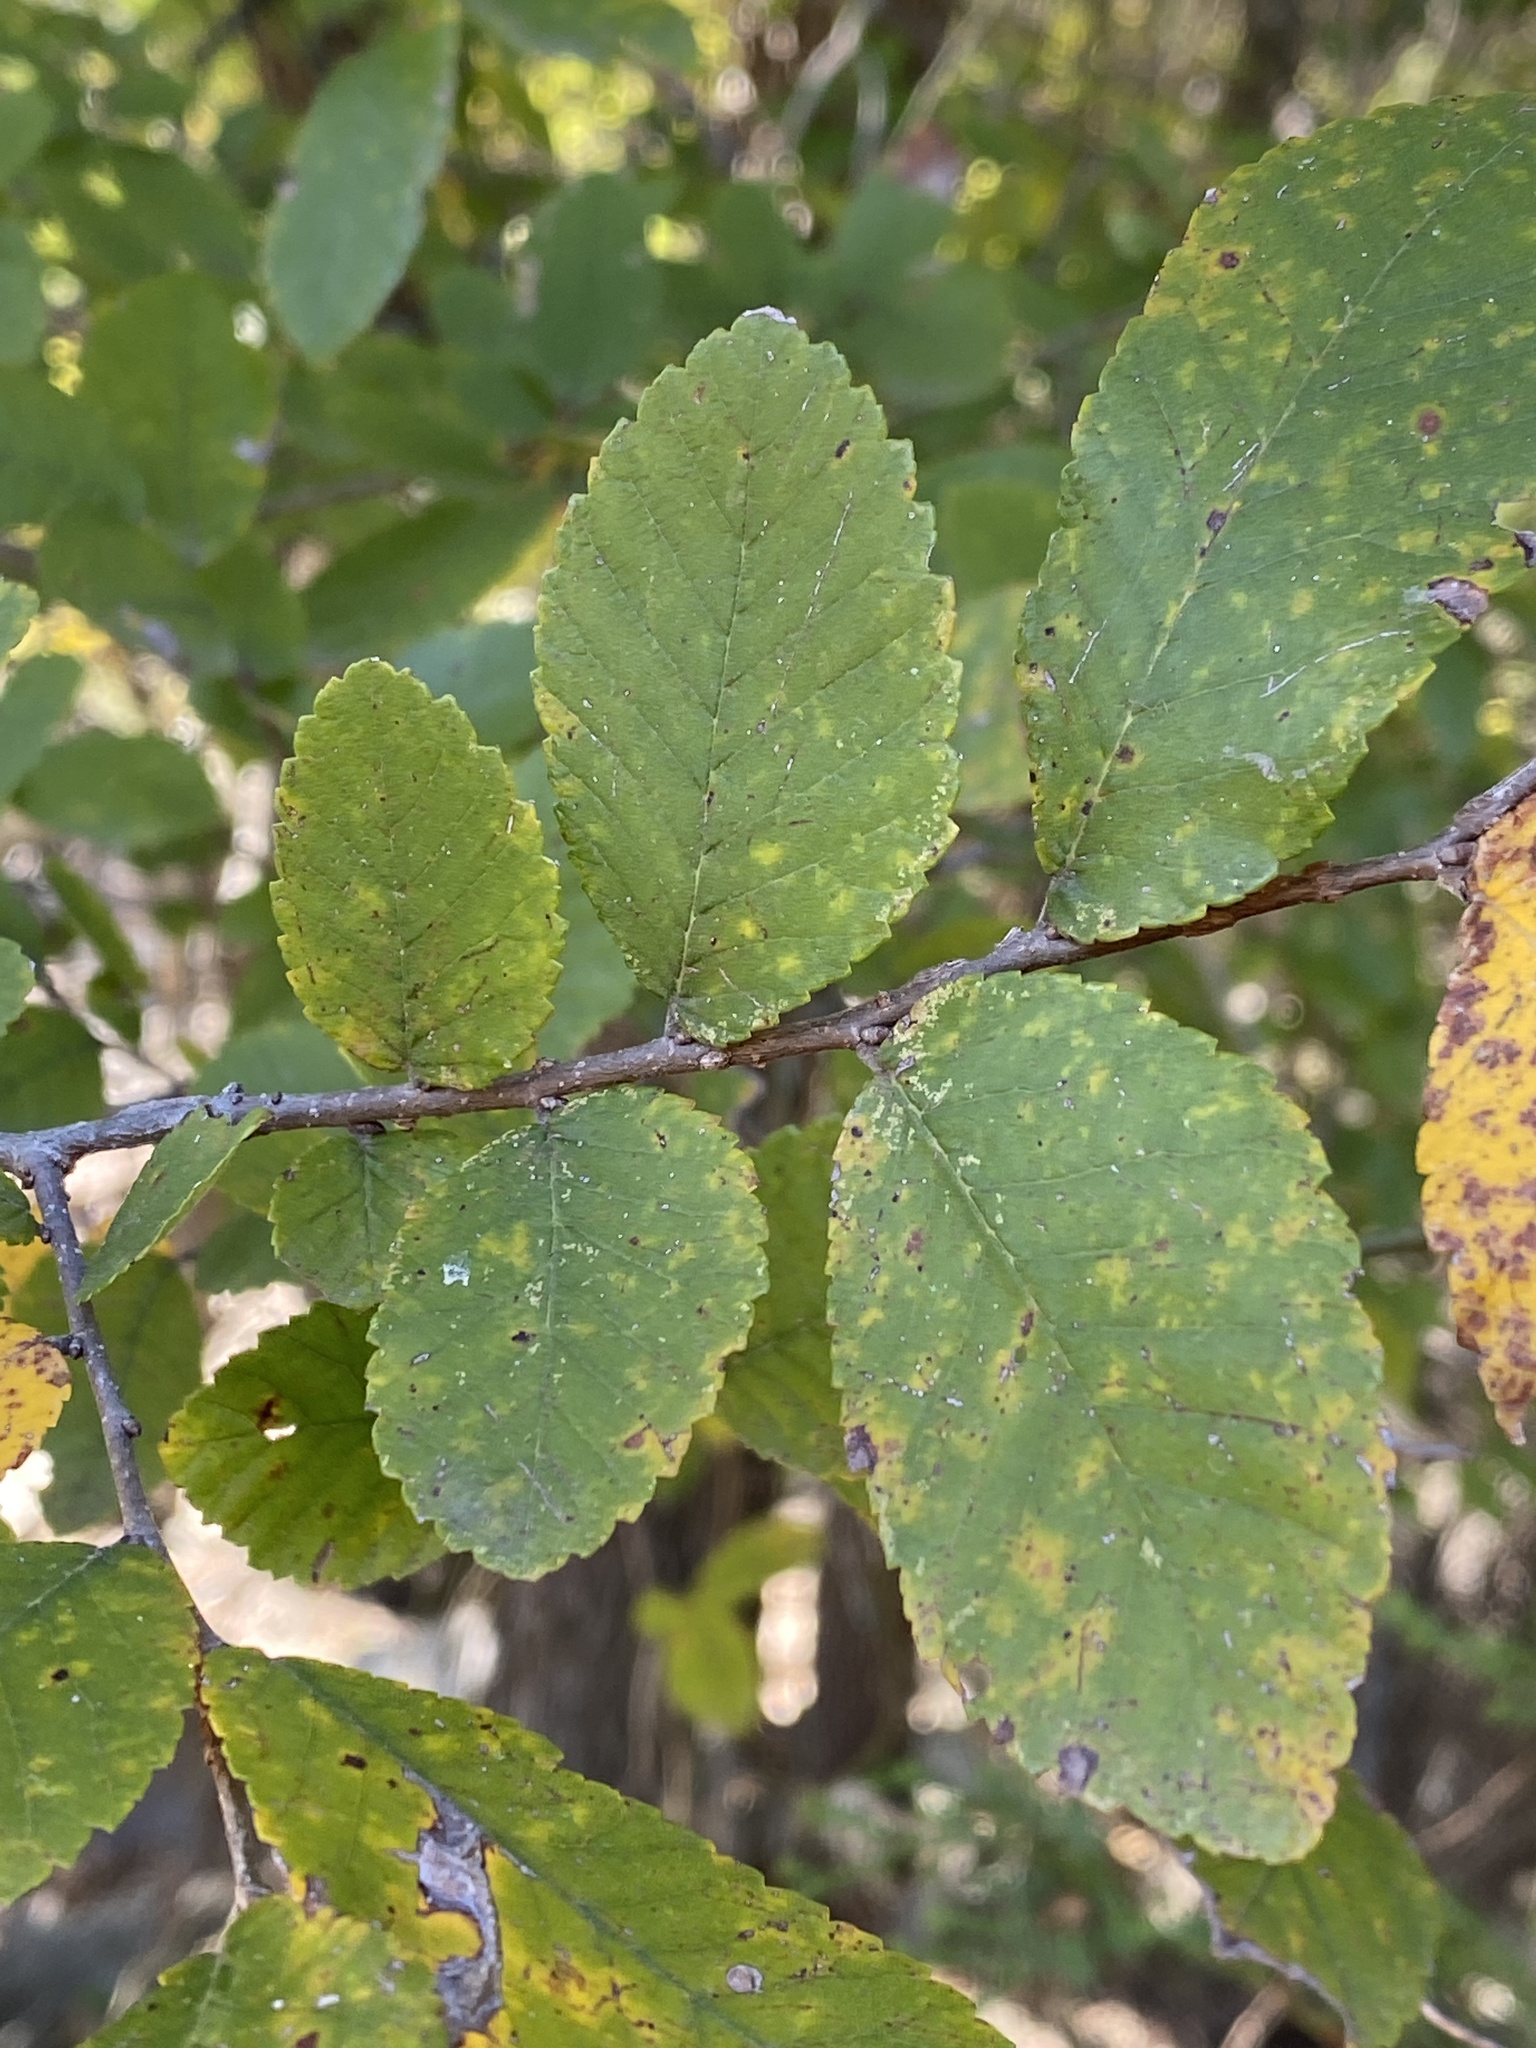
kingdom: Plantae
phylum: Tracheophyta
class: Magnoliopsida
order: Rosales
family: Ulmaceae
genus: Ulmus
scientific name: Ulmus crassifolia
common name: Basket elm
